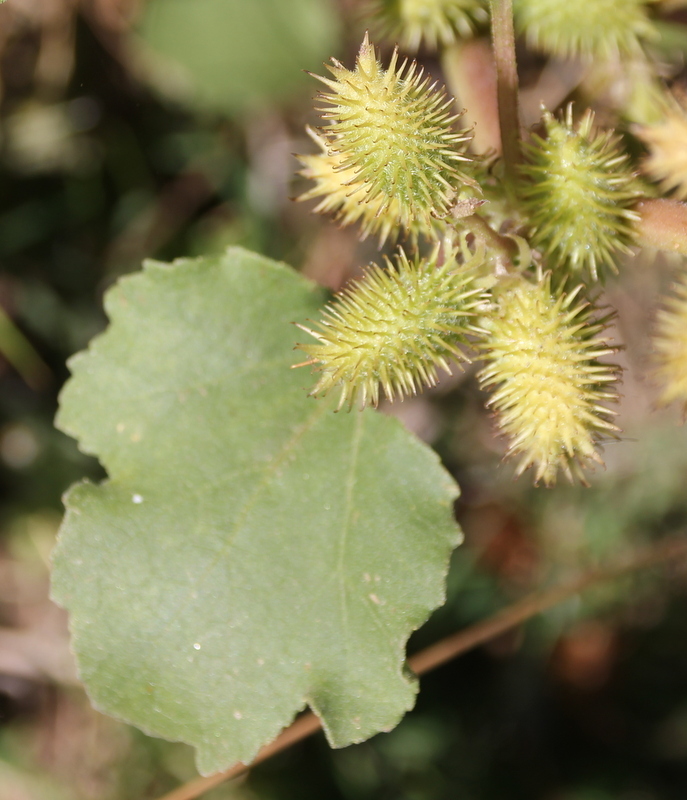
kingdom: Plantae
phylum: Tracheophyta
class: Magnoliopsida
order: Asterales
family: Asteraceae
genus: Xanthium
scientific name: Xanthium strumarium
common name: Rough cocklebur
